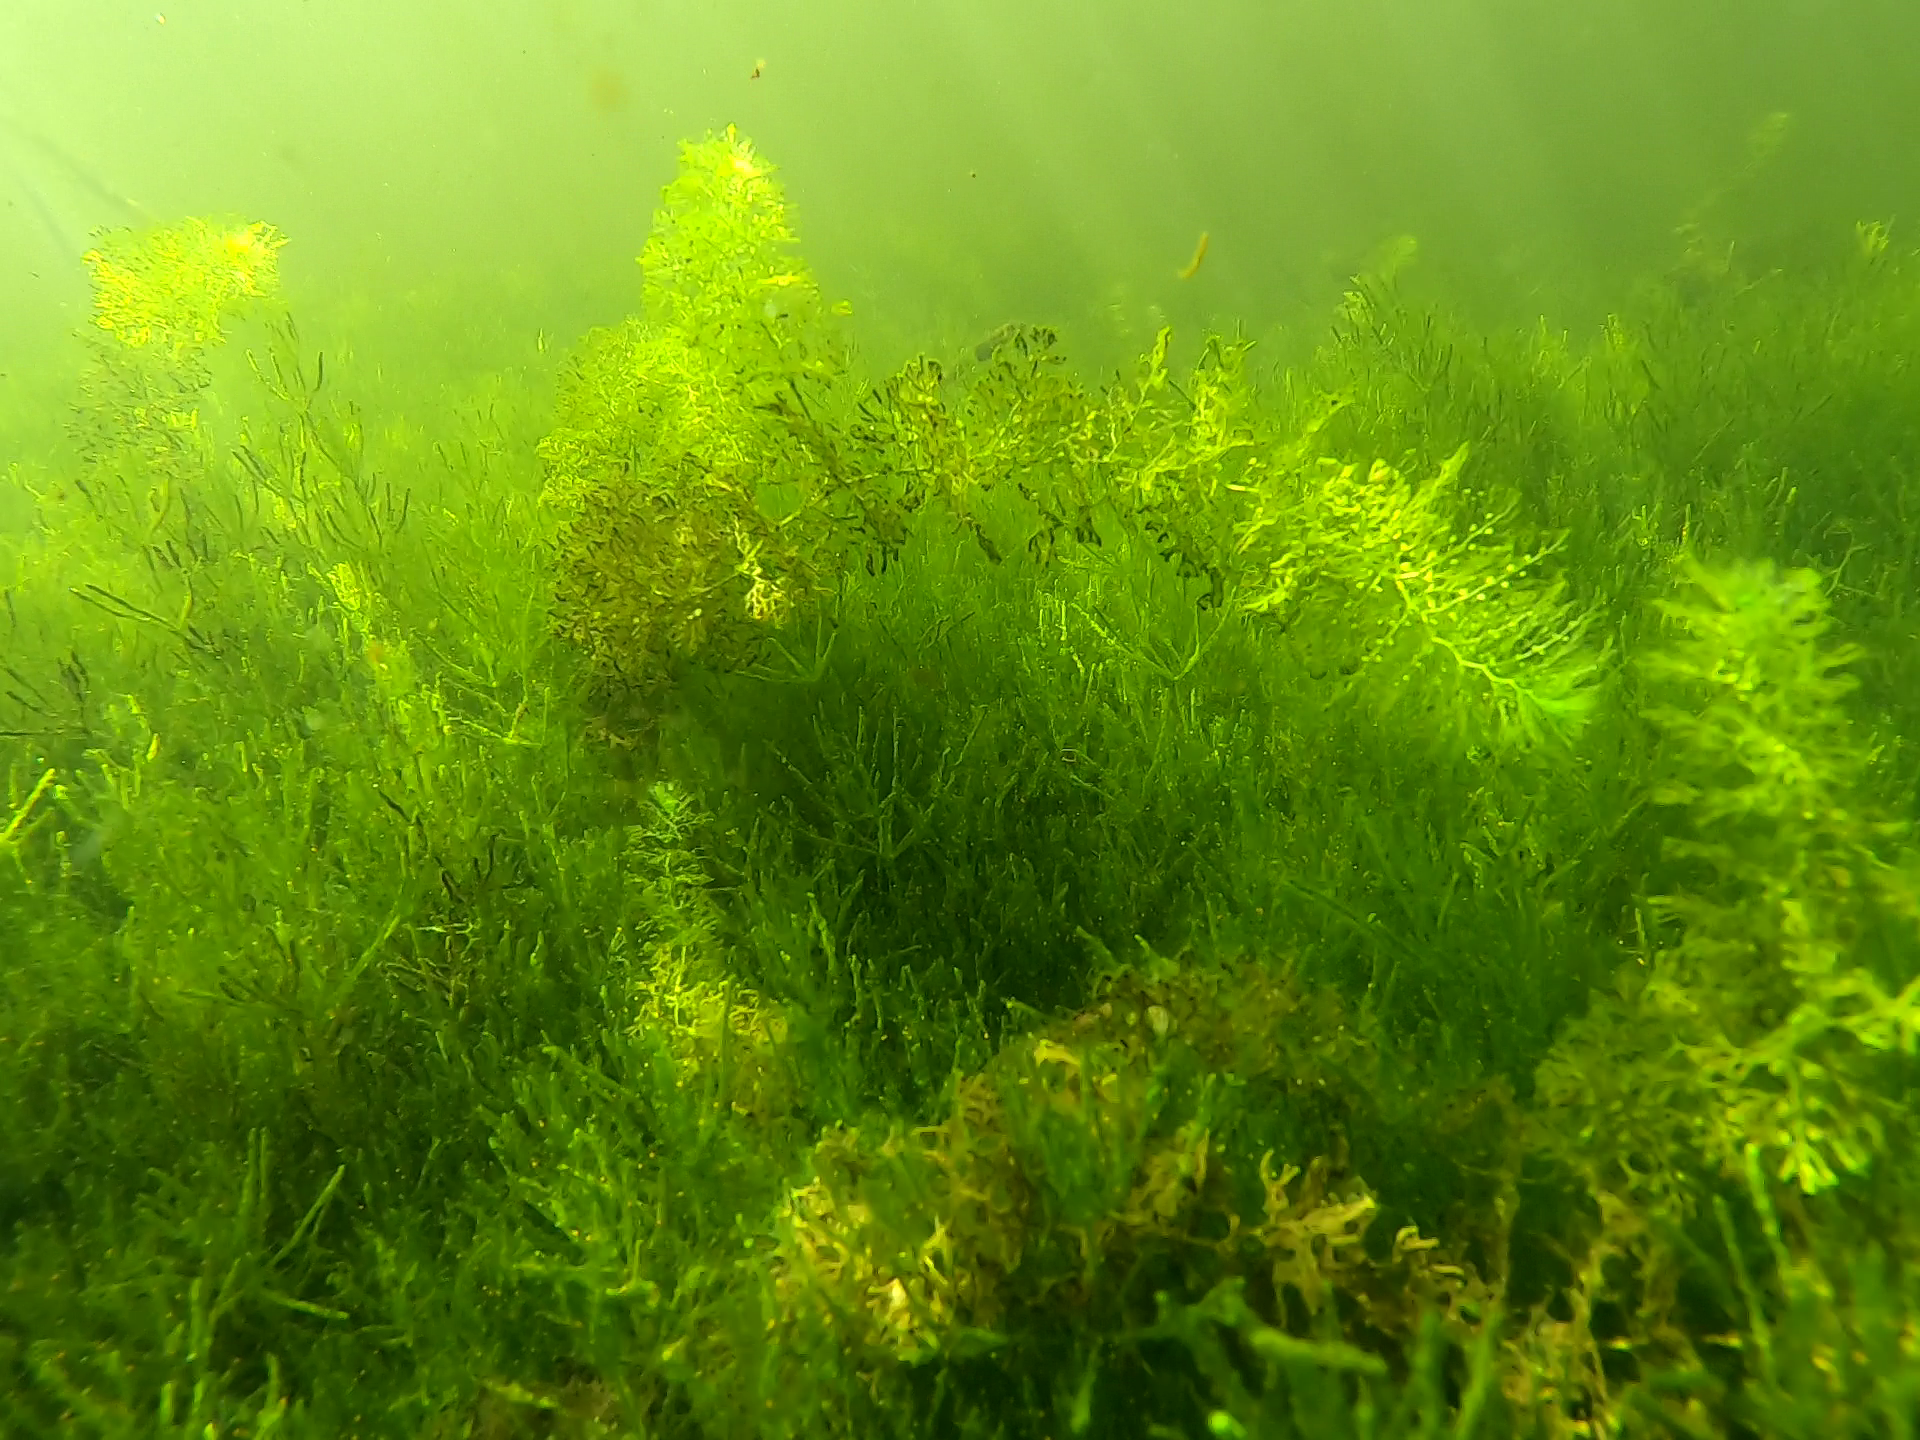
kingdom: Plantae
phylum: Tracheophyta
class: Magnoliopsida
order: Lamiales
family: Lentibulariaceae
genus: Utricularia
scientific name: Utricularia australis
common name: Bladderwort
